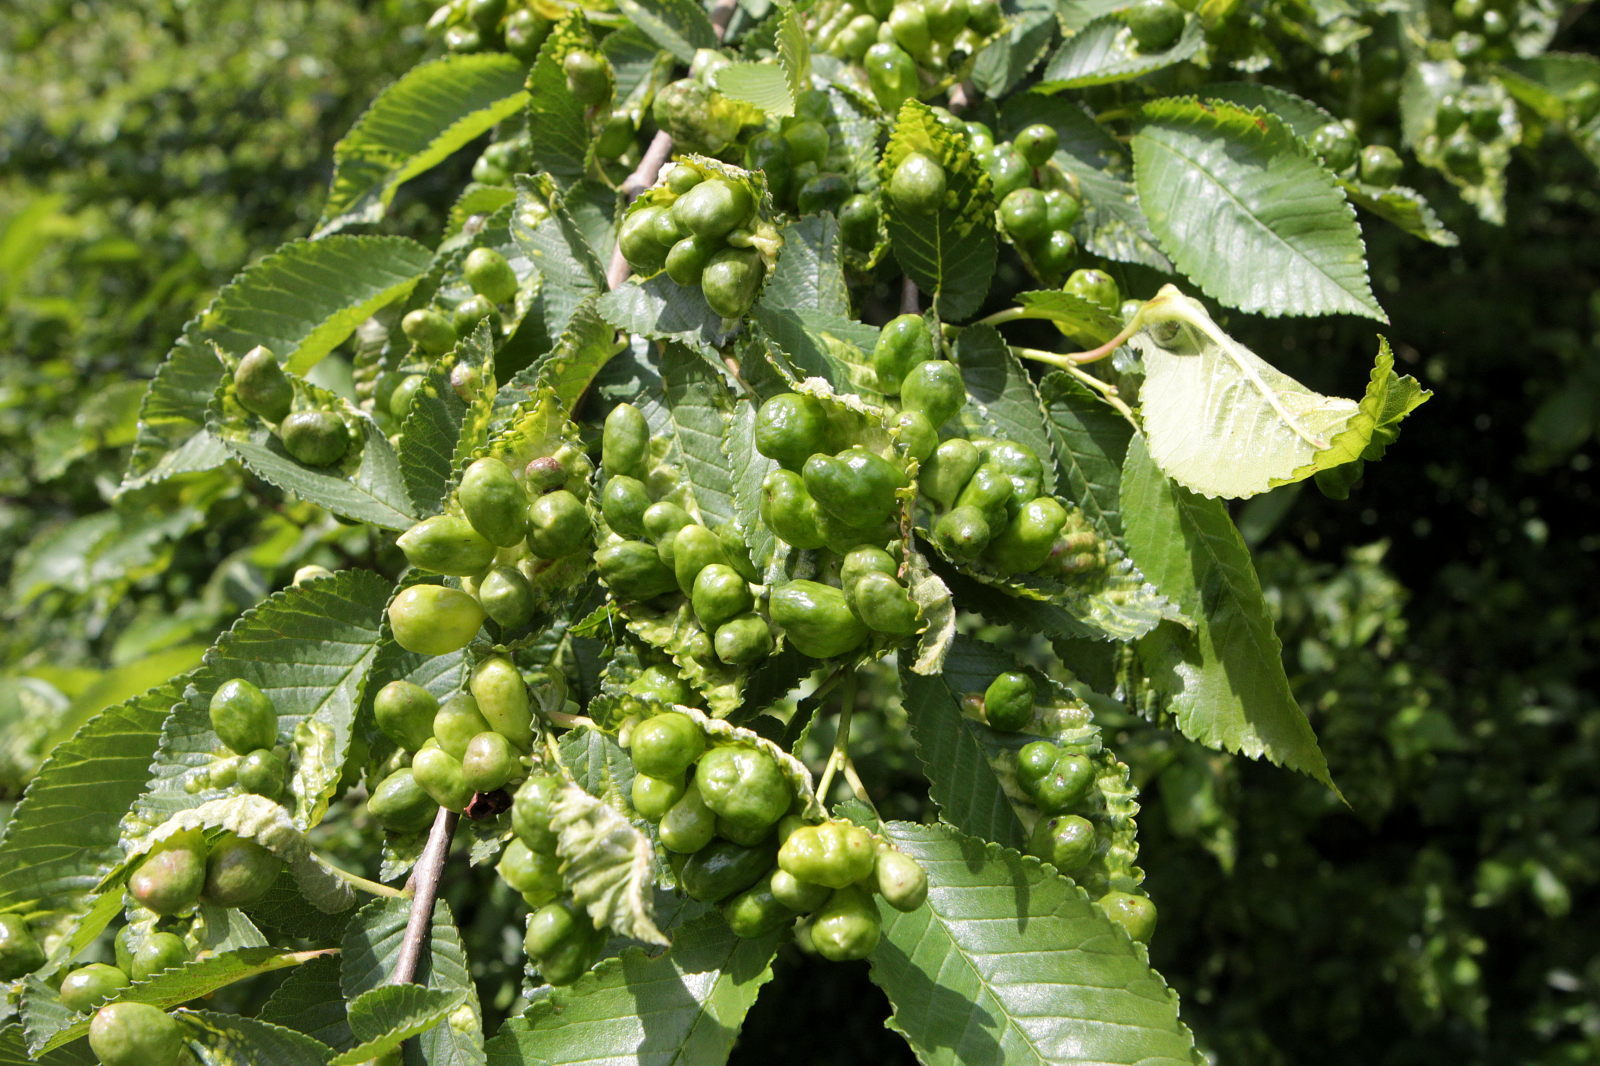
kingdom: Animalia
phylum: Arthropoda
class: Insecta
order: Hemiptera
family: Aphididae
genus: Tetraneura
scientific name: Tetraneura ulmi
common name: Aphid
